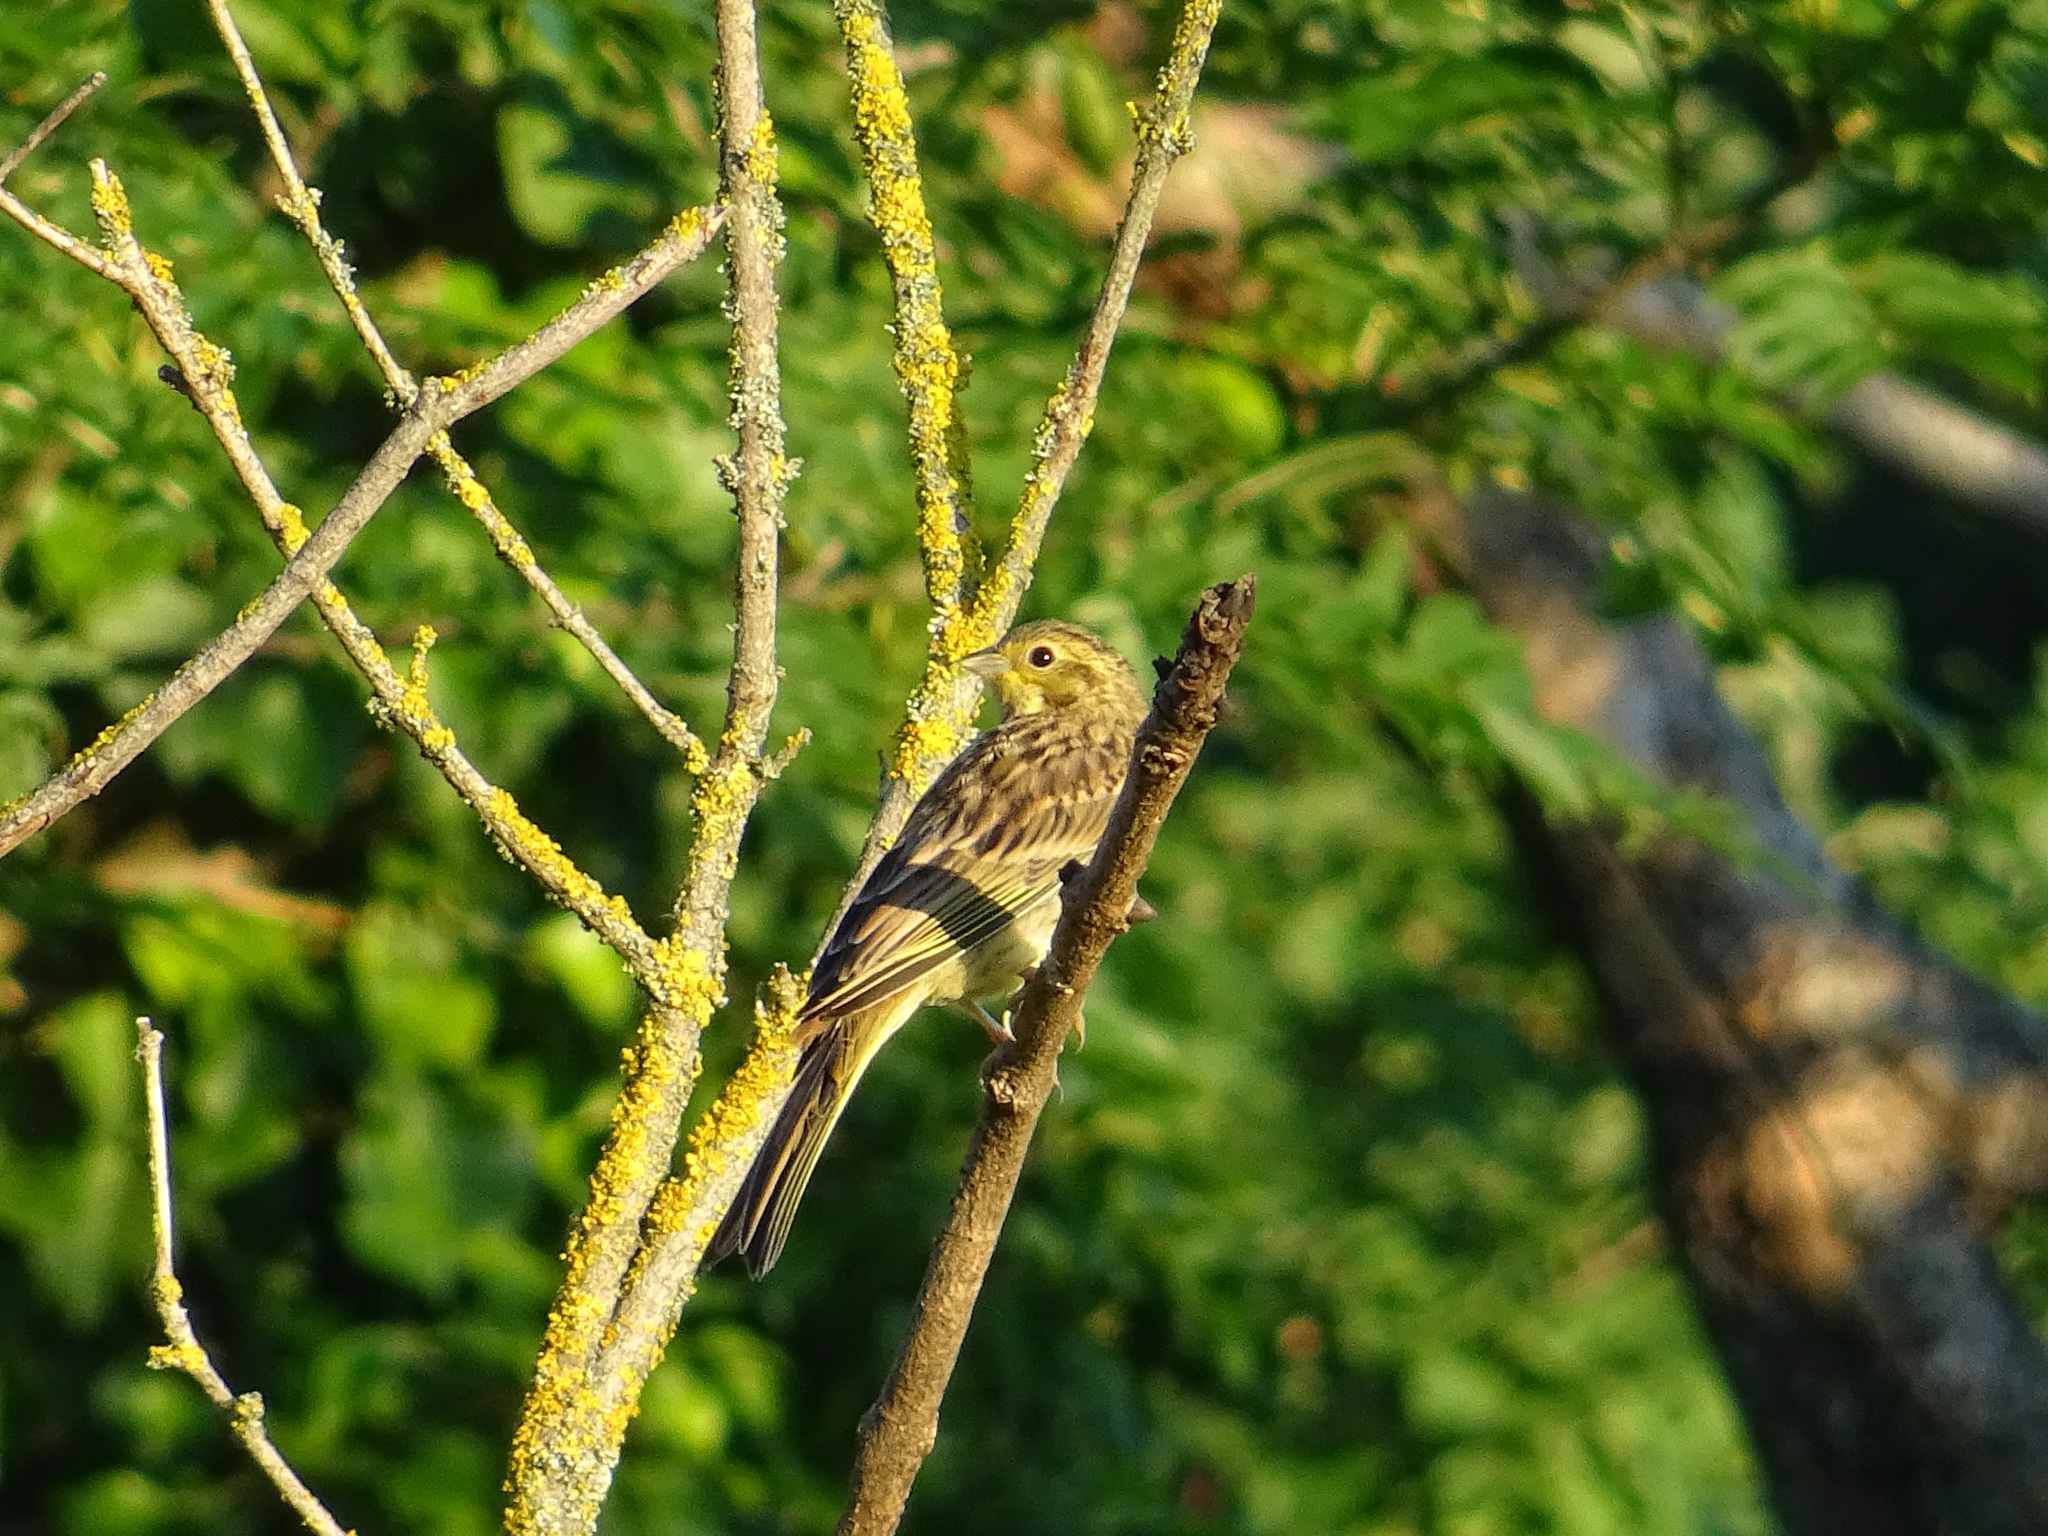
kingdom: Animalia
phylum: Chordata
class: Aves
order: Passeriformes
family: Emberizidae
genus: Emberiza
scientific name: Emberiza citrinella
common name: Yellowhammer
